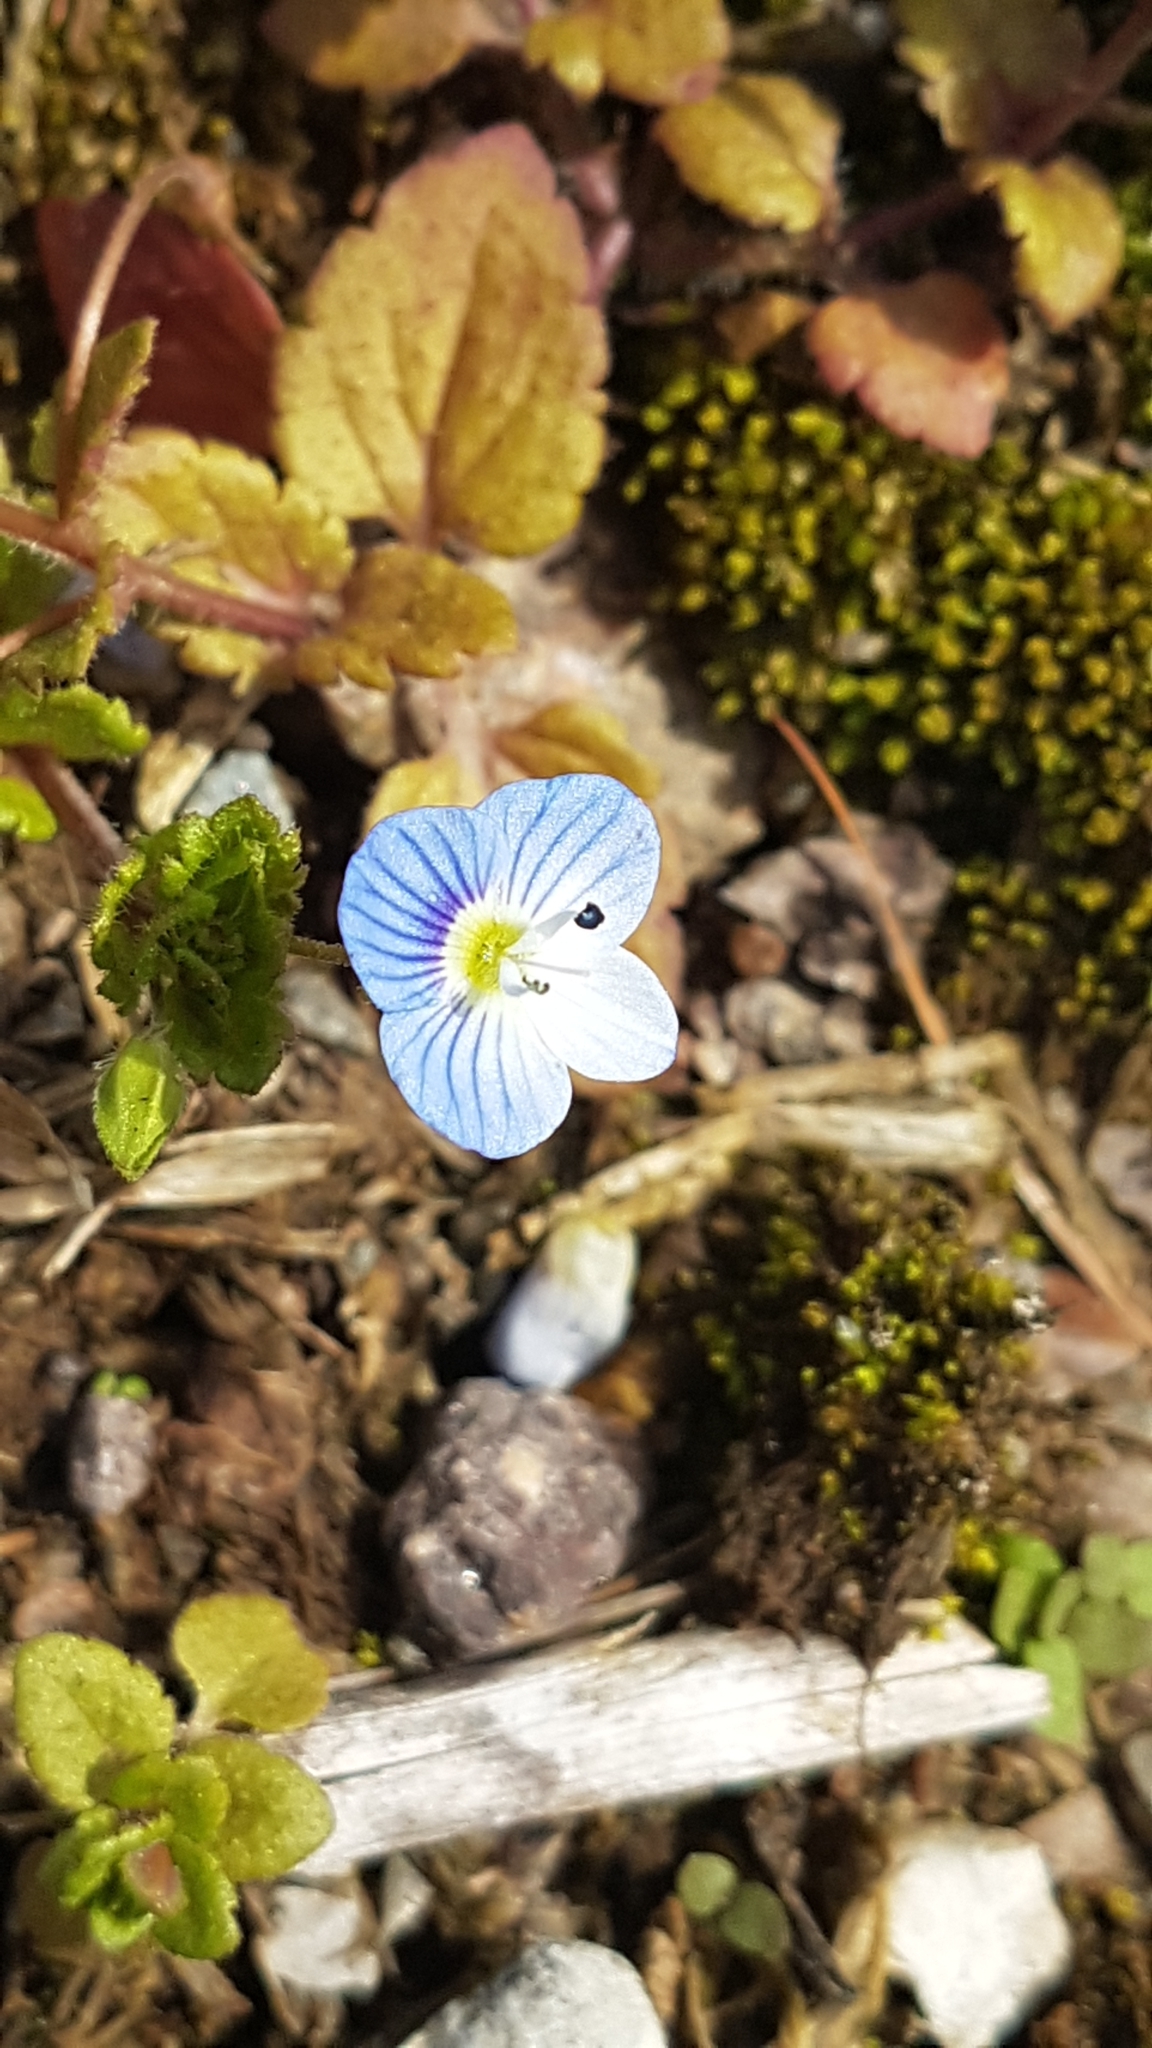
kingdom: Plantae
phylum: Tracheophyta
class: Magnoliopsida
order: Lamiales
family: Plantaginaceae
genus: Veronica
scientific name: Veronica persica
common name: Common field-speedwell
